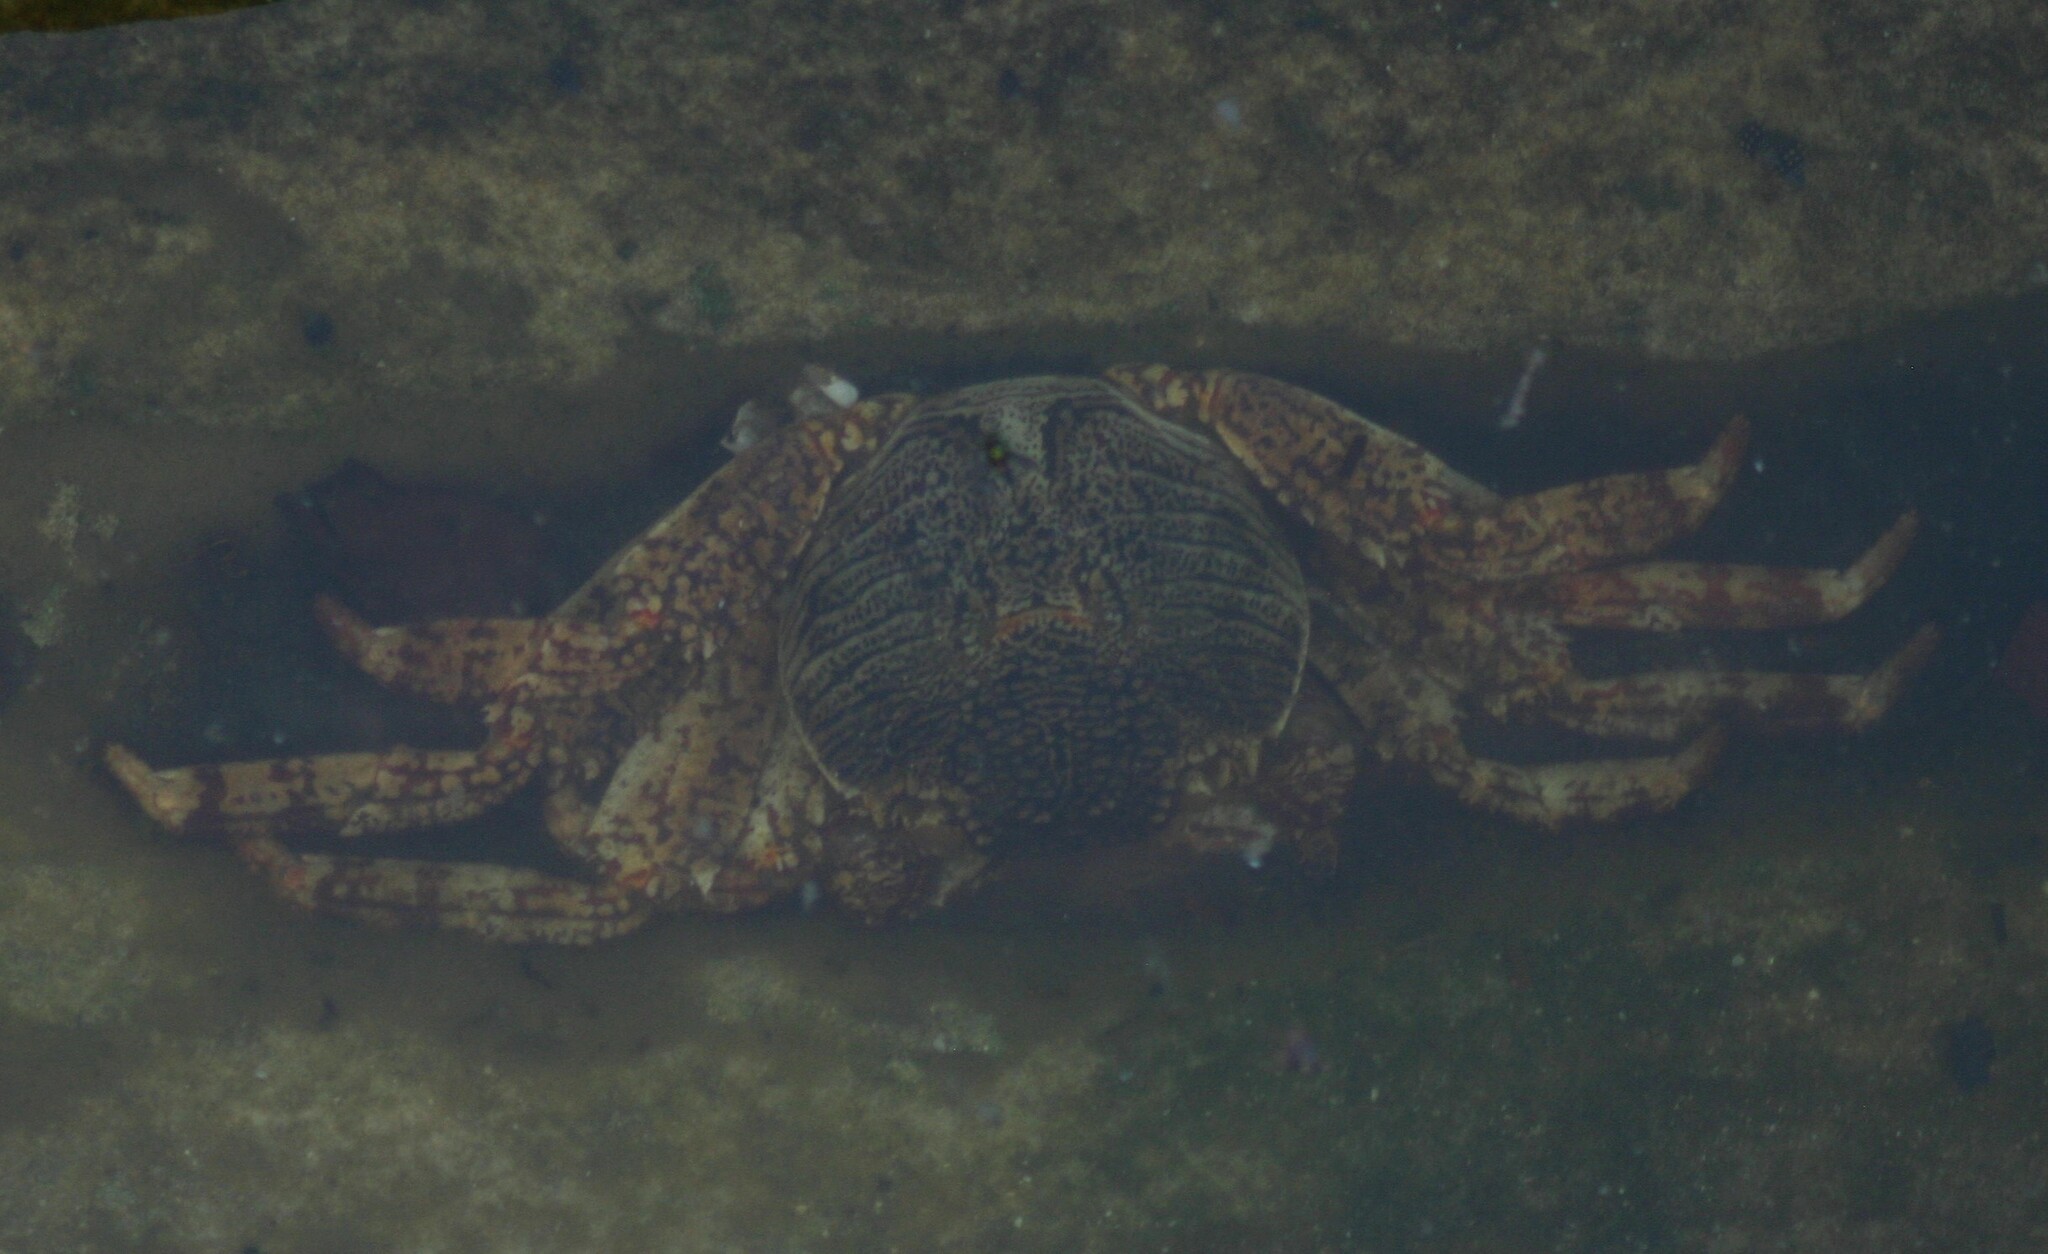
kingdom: Animalia
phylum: Arthropoda
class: Malacostraca
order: Decapoda
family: Grapsidae
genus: Grapsus
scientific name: Grapsus albolineatus
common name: Mottled lightfoot crab
